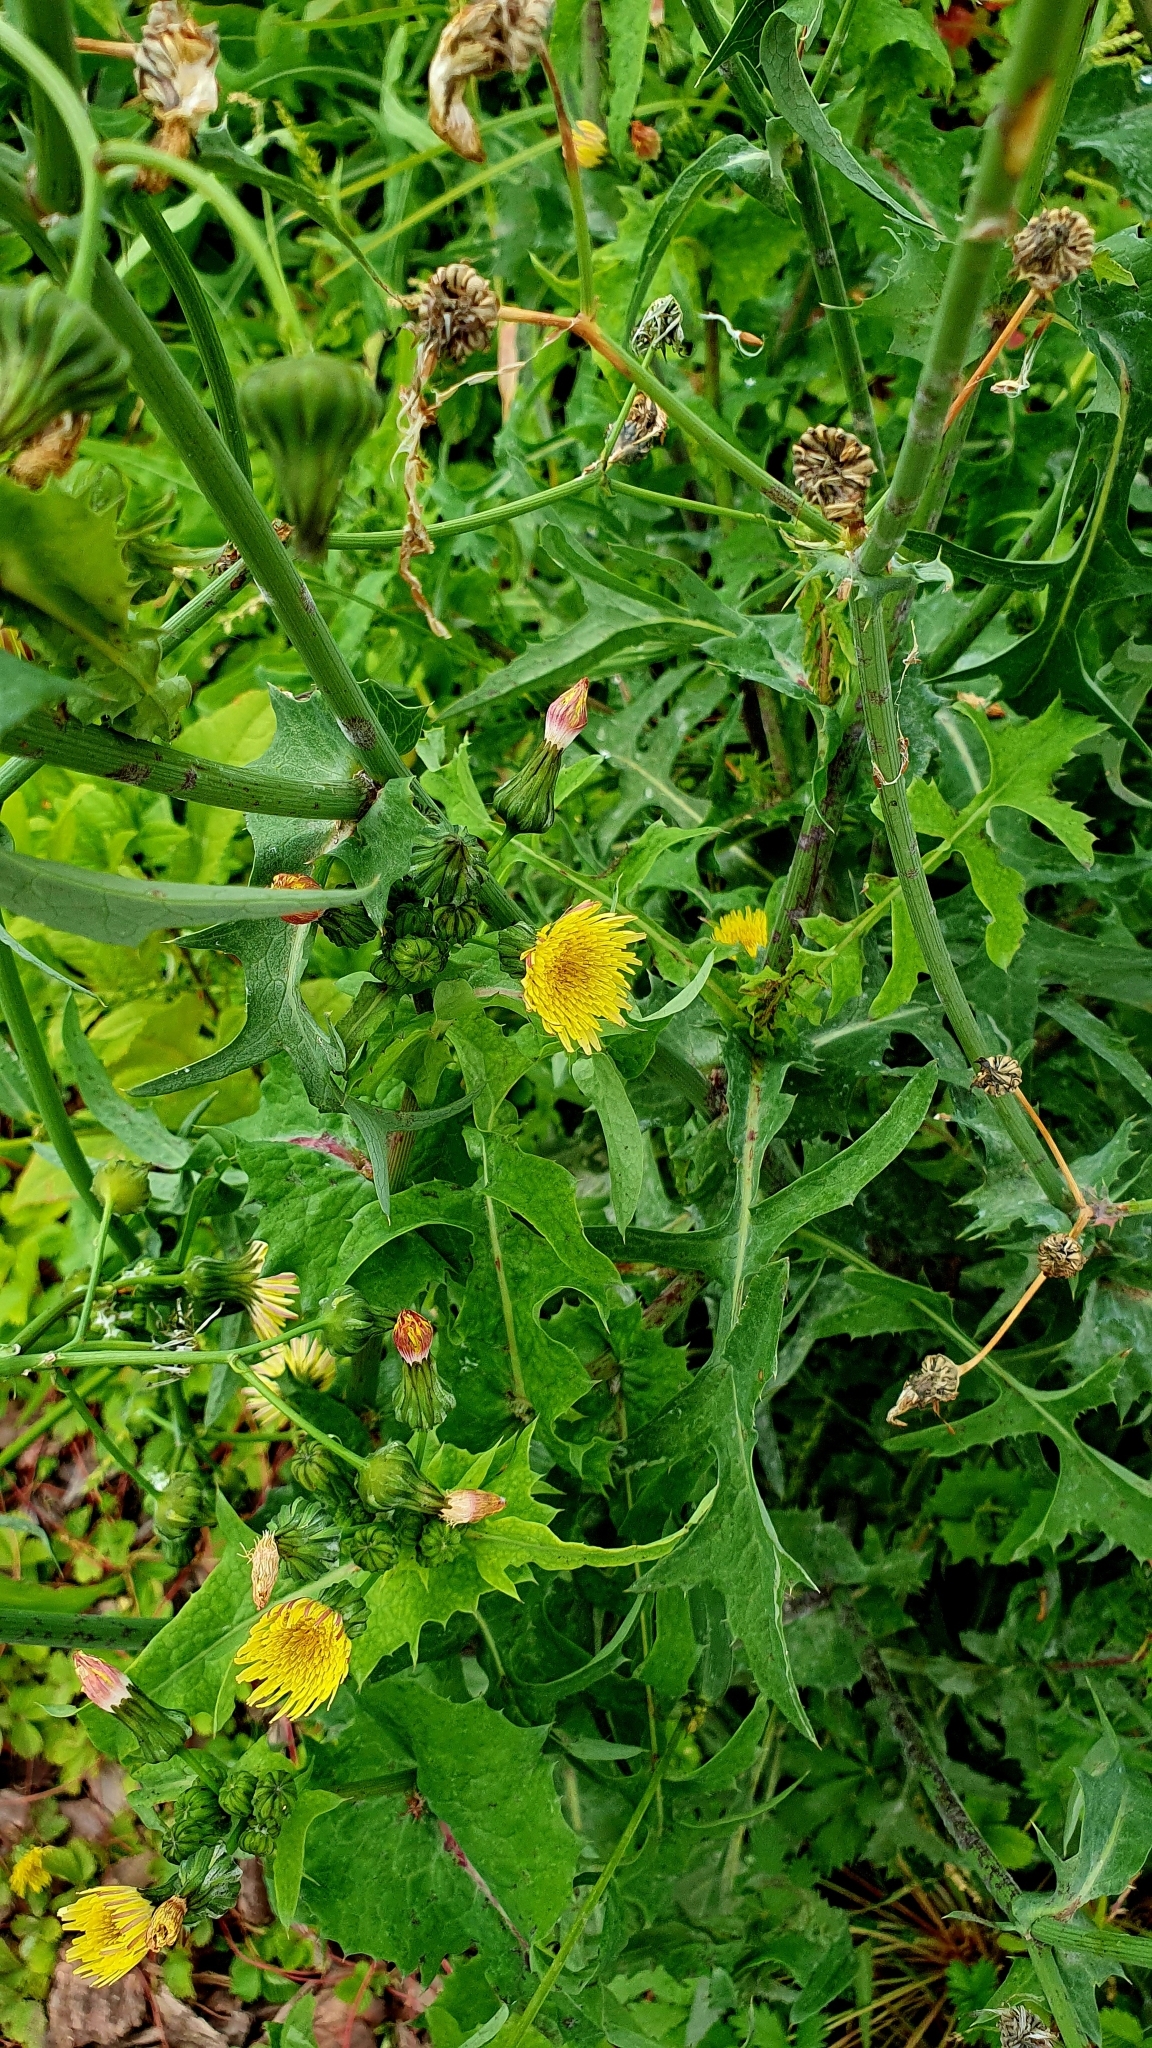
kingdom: Plantae
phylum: Tracheophyta
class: Magnoliopsida
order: Asterales
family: Asteraceae
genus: Sonchus
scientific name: Sonchus oleraceus
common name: Common sowthistle
